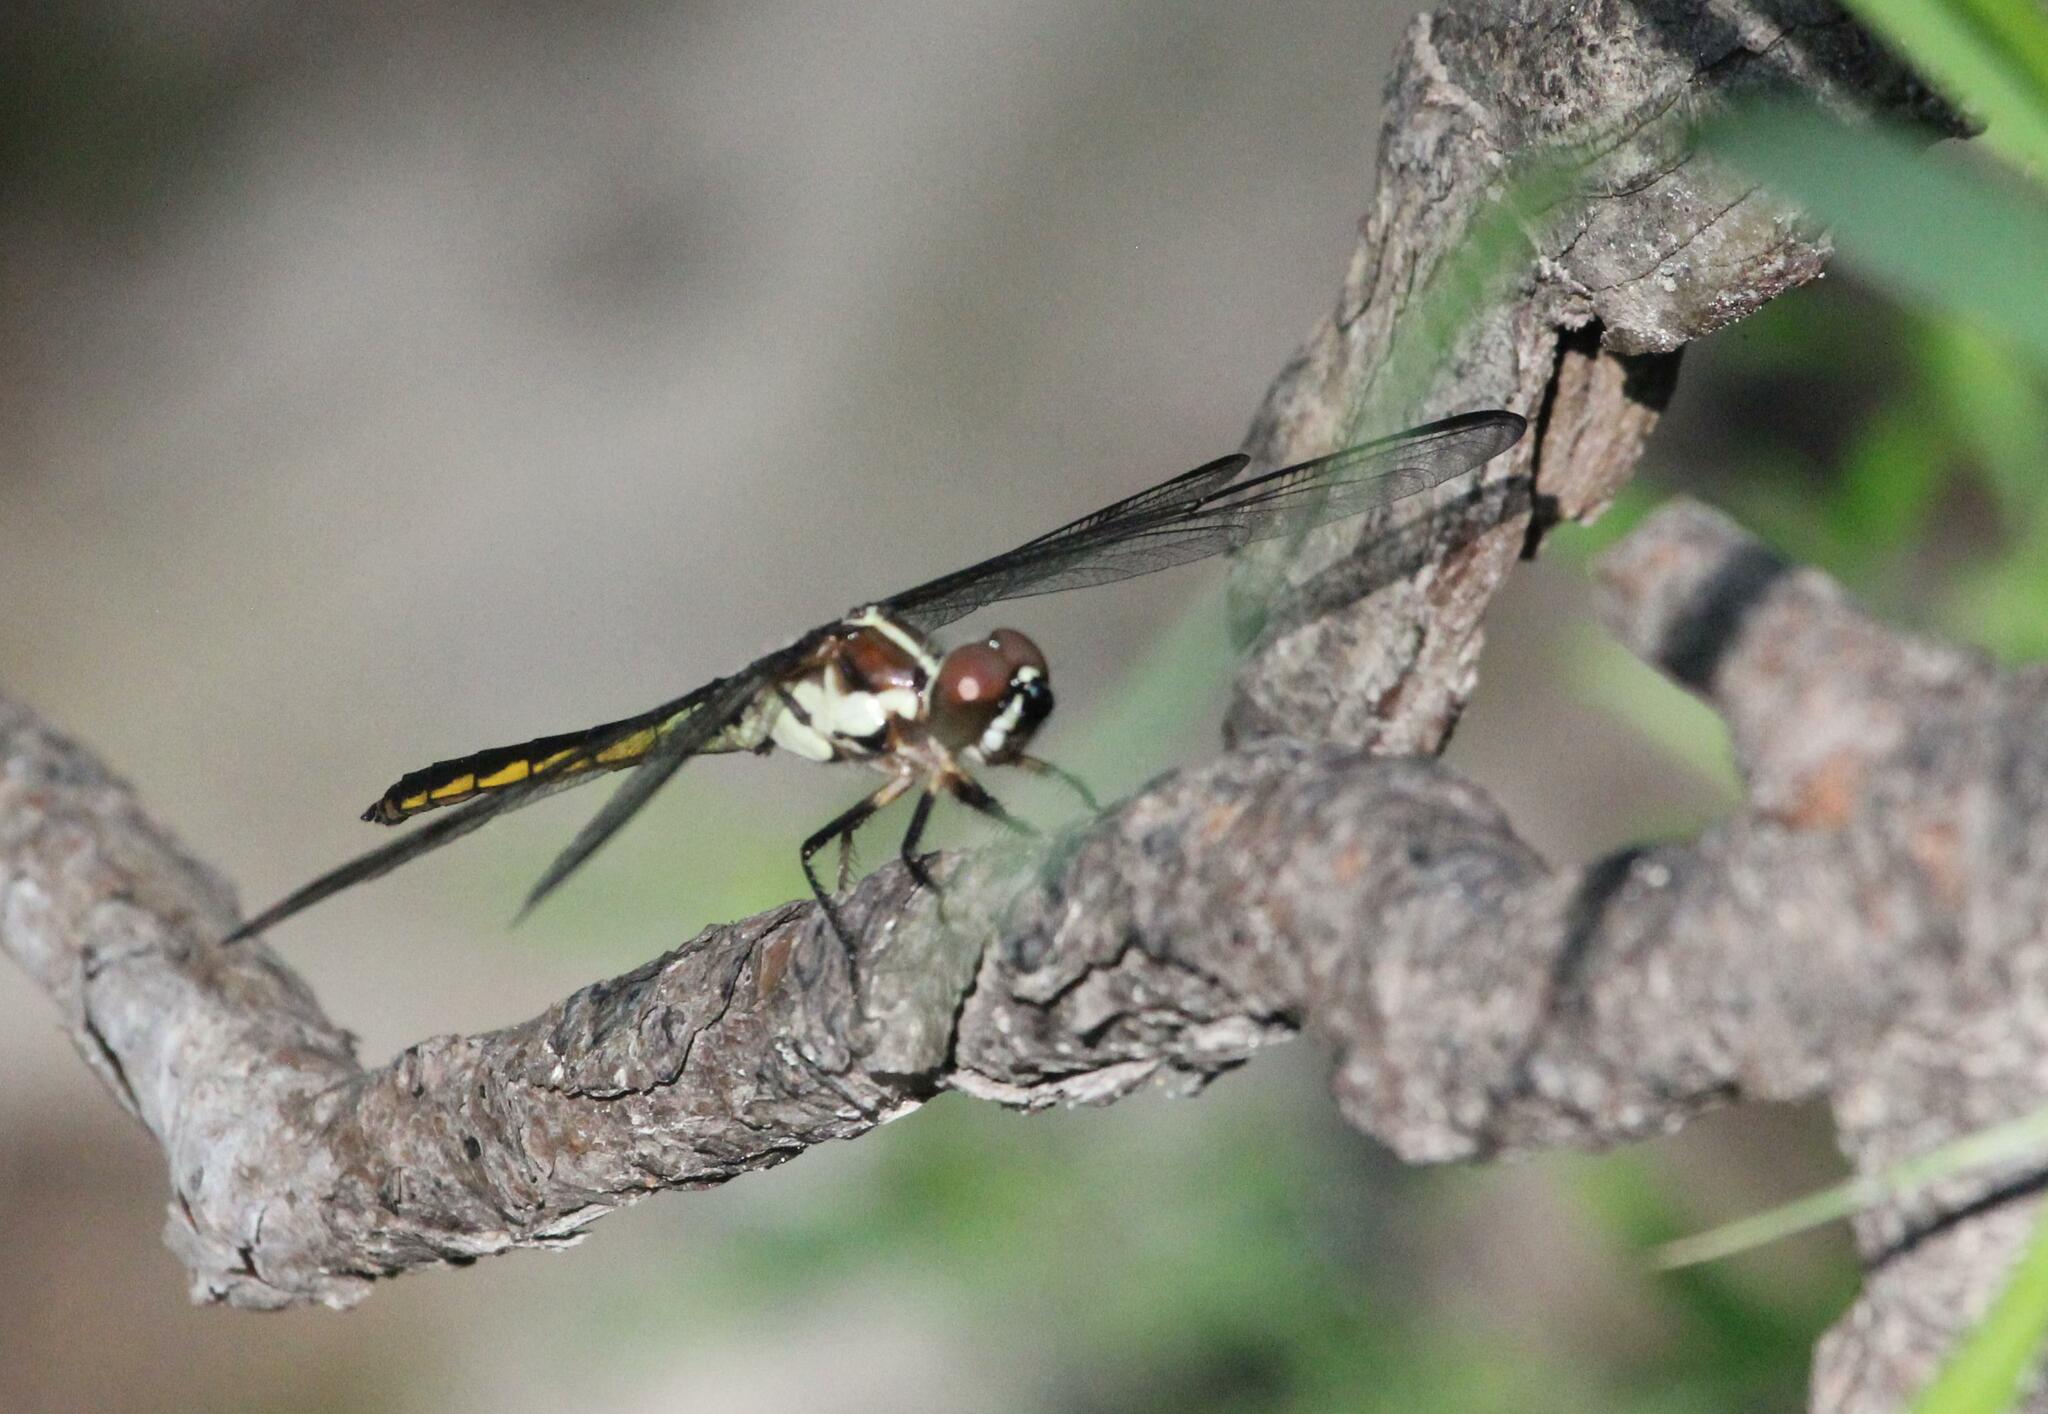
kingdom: Animalia
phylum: Arthropoda
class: Insecta
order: Odonata
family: Libellulidae
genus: Libellula
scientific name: Libellula axilena
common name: Bar-winged skimmer
